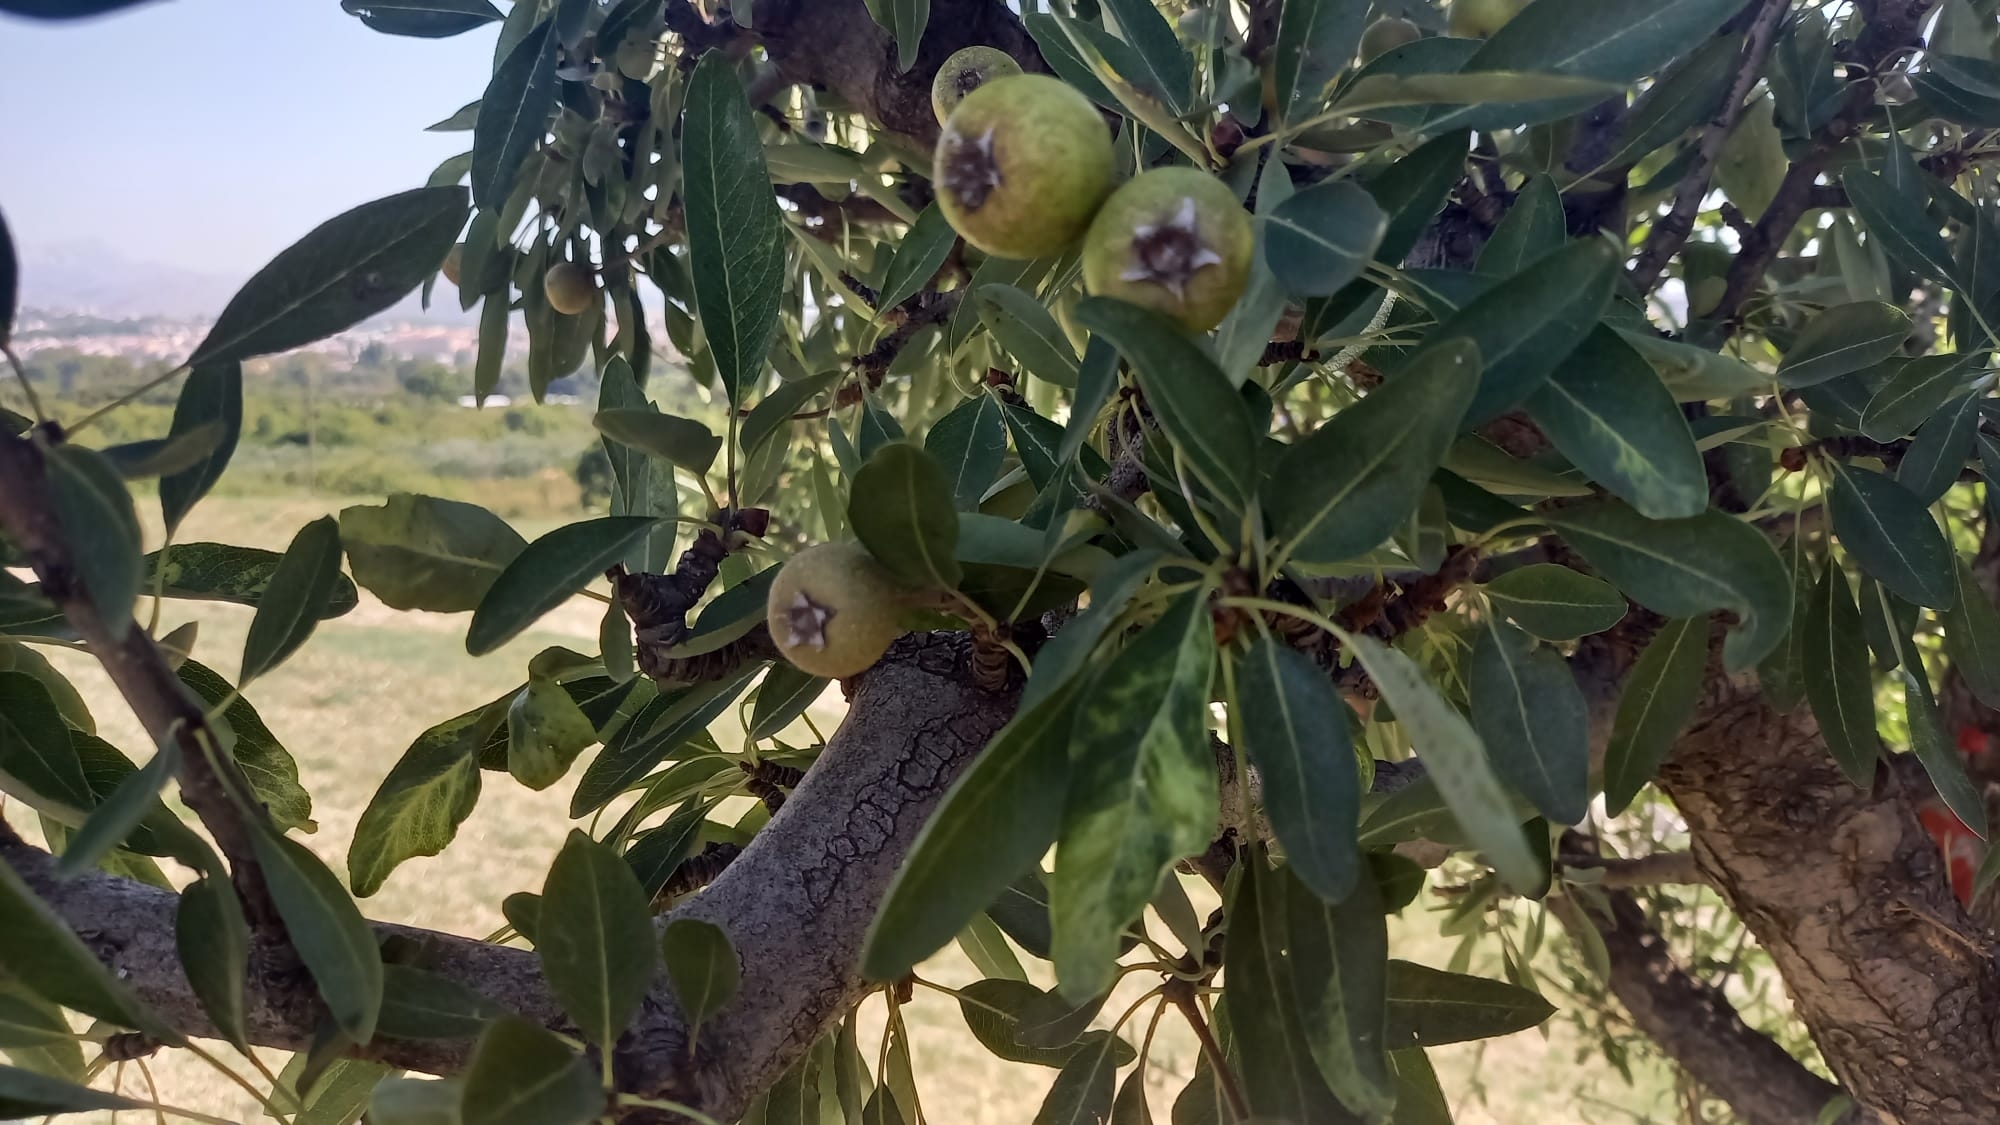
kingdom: Plantae
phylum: Tracheophyta
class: Magnoliopsida
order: Rosales
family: Rosaceae
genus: Pyrus
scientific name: Pyrus spinosa
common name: Almond-leaf pear
